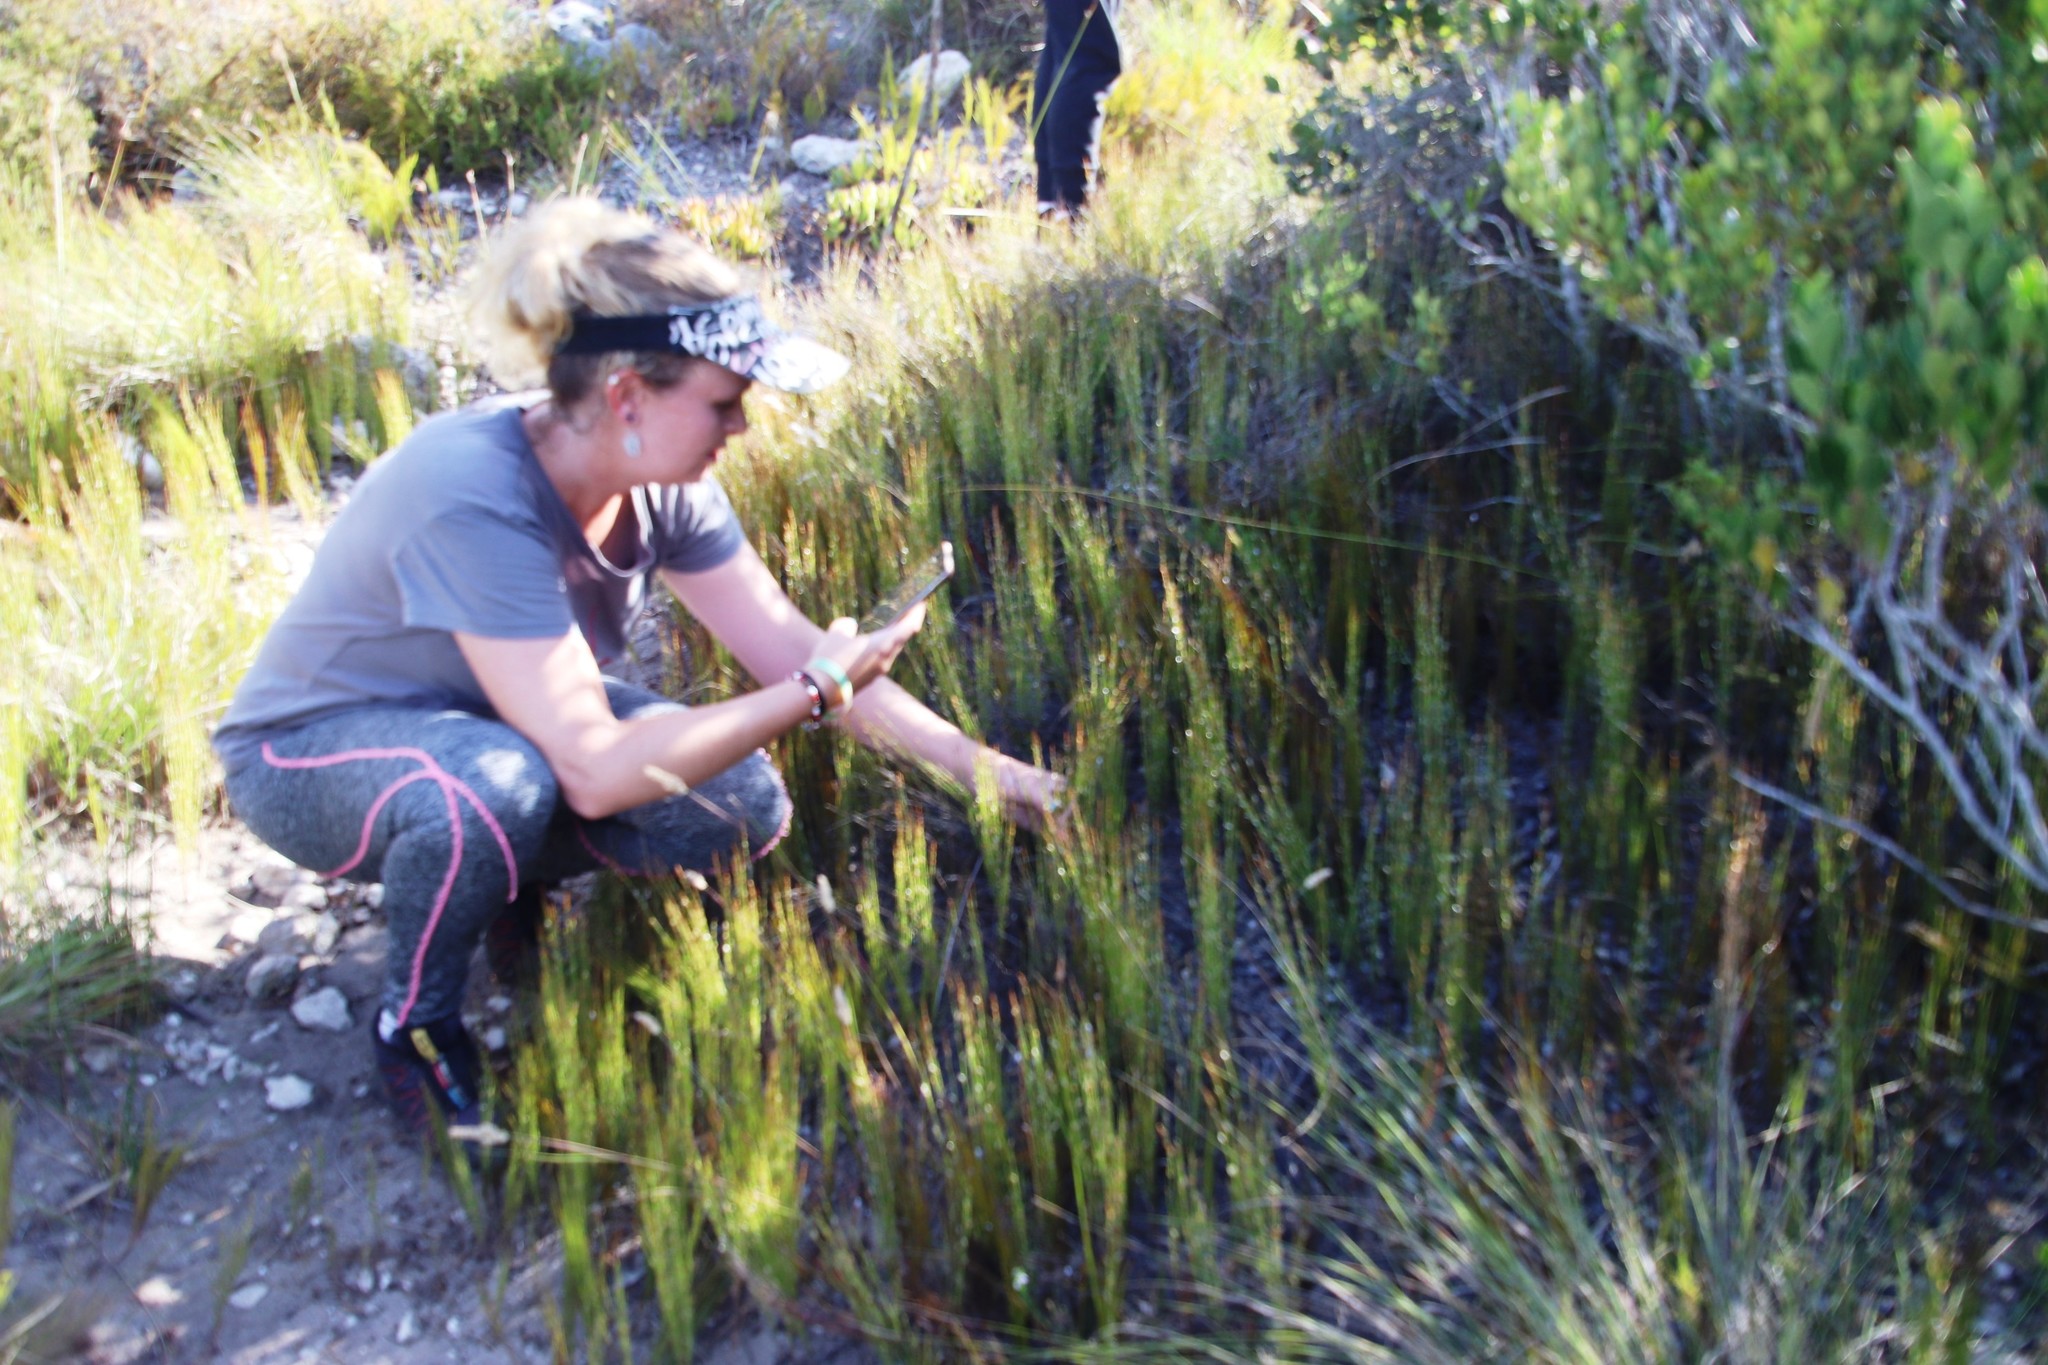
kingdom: Plantae
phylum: Tracheophyta
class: Liliopsida
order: Poales
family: Restionaceae
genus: Elegia
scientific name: Elegia microcarpa
